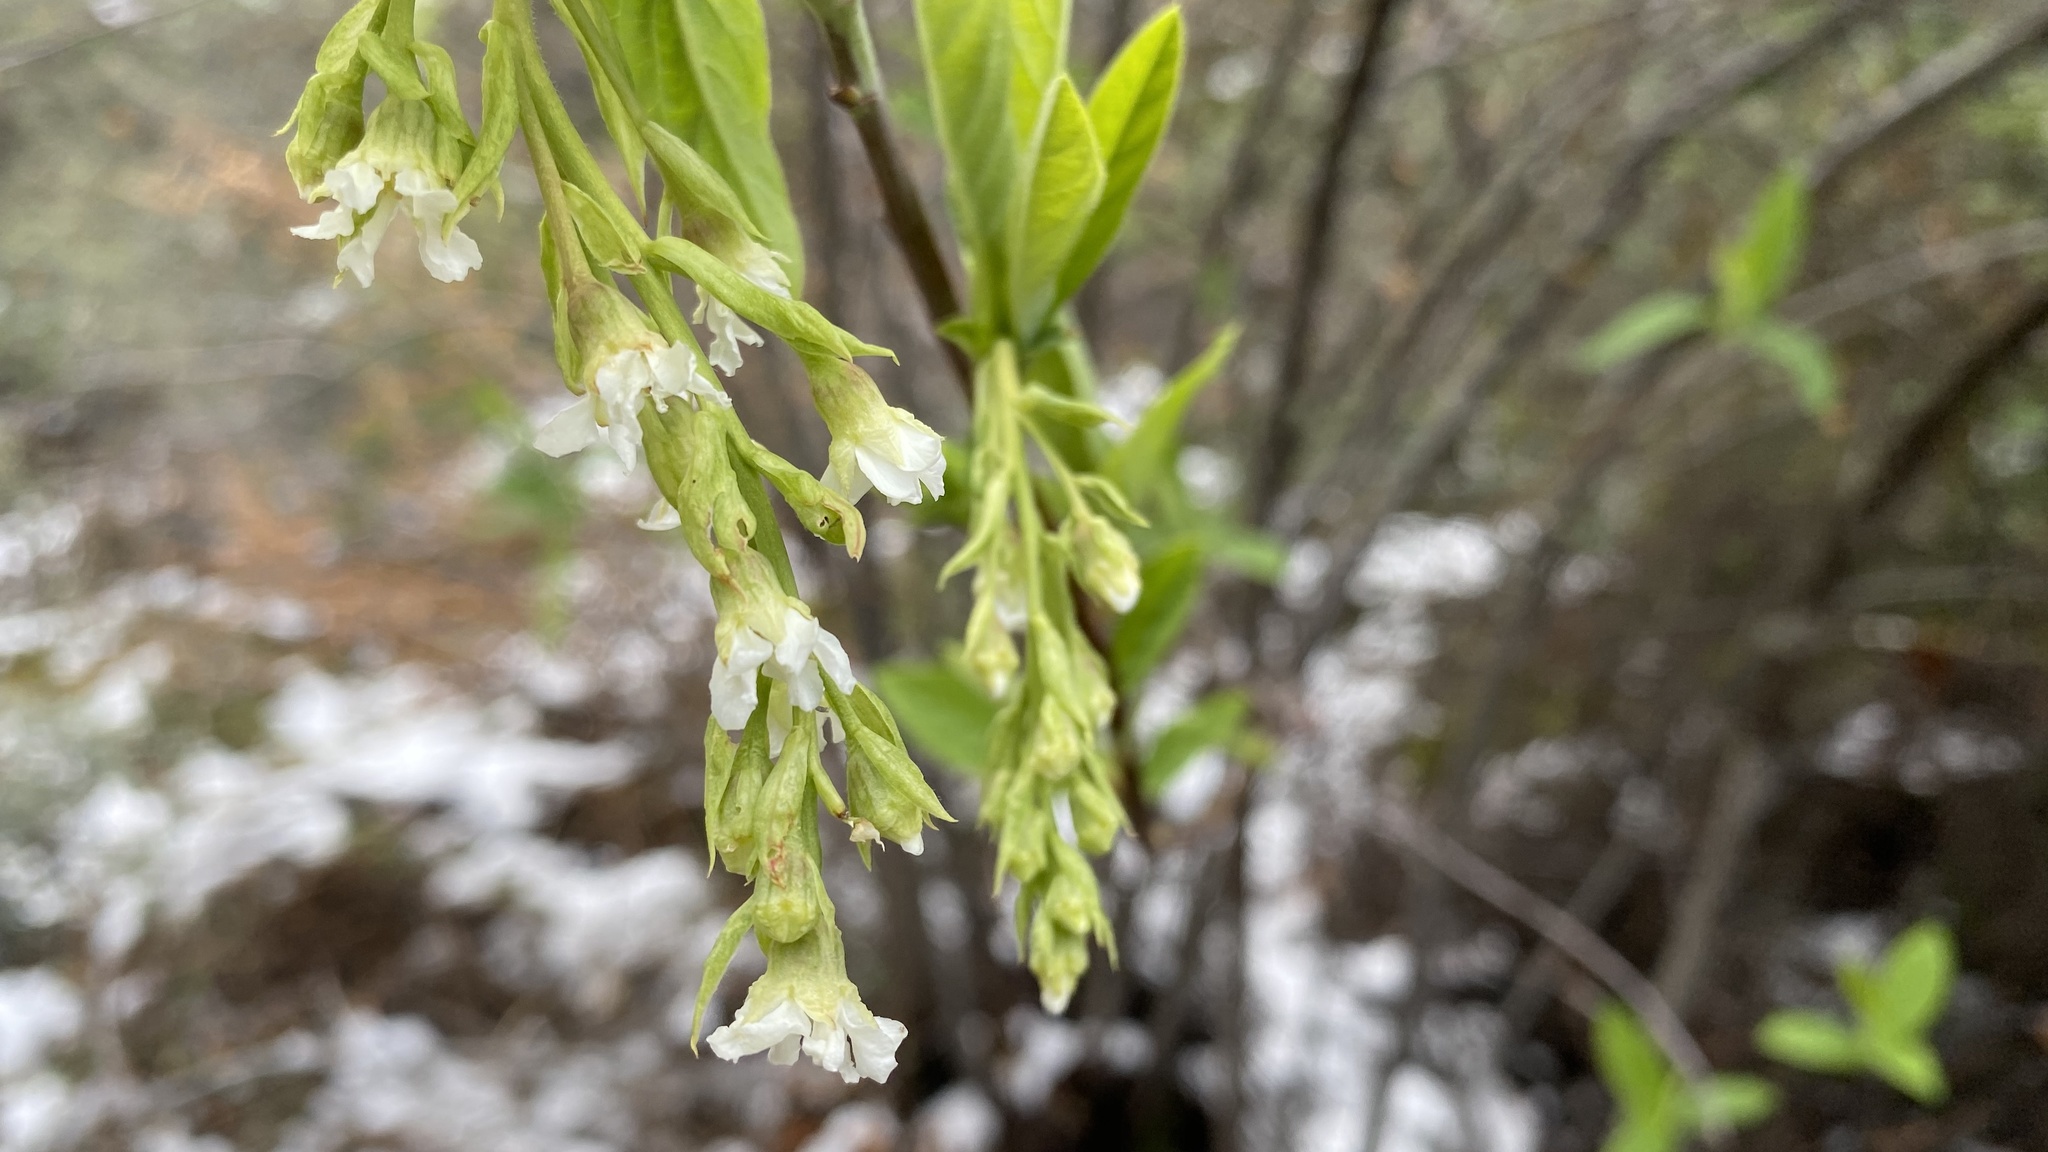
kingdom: Plantae
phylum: Tracheophyta
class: Magnoliopsida
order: Rosales
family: Rosaceae
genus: Oemleria
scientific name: Oemleria cerasiformis
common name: Osoberry
